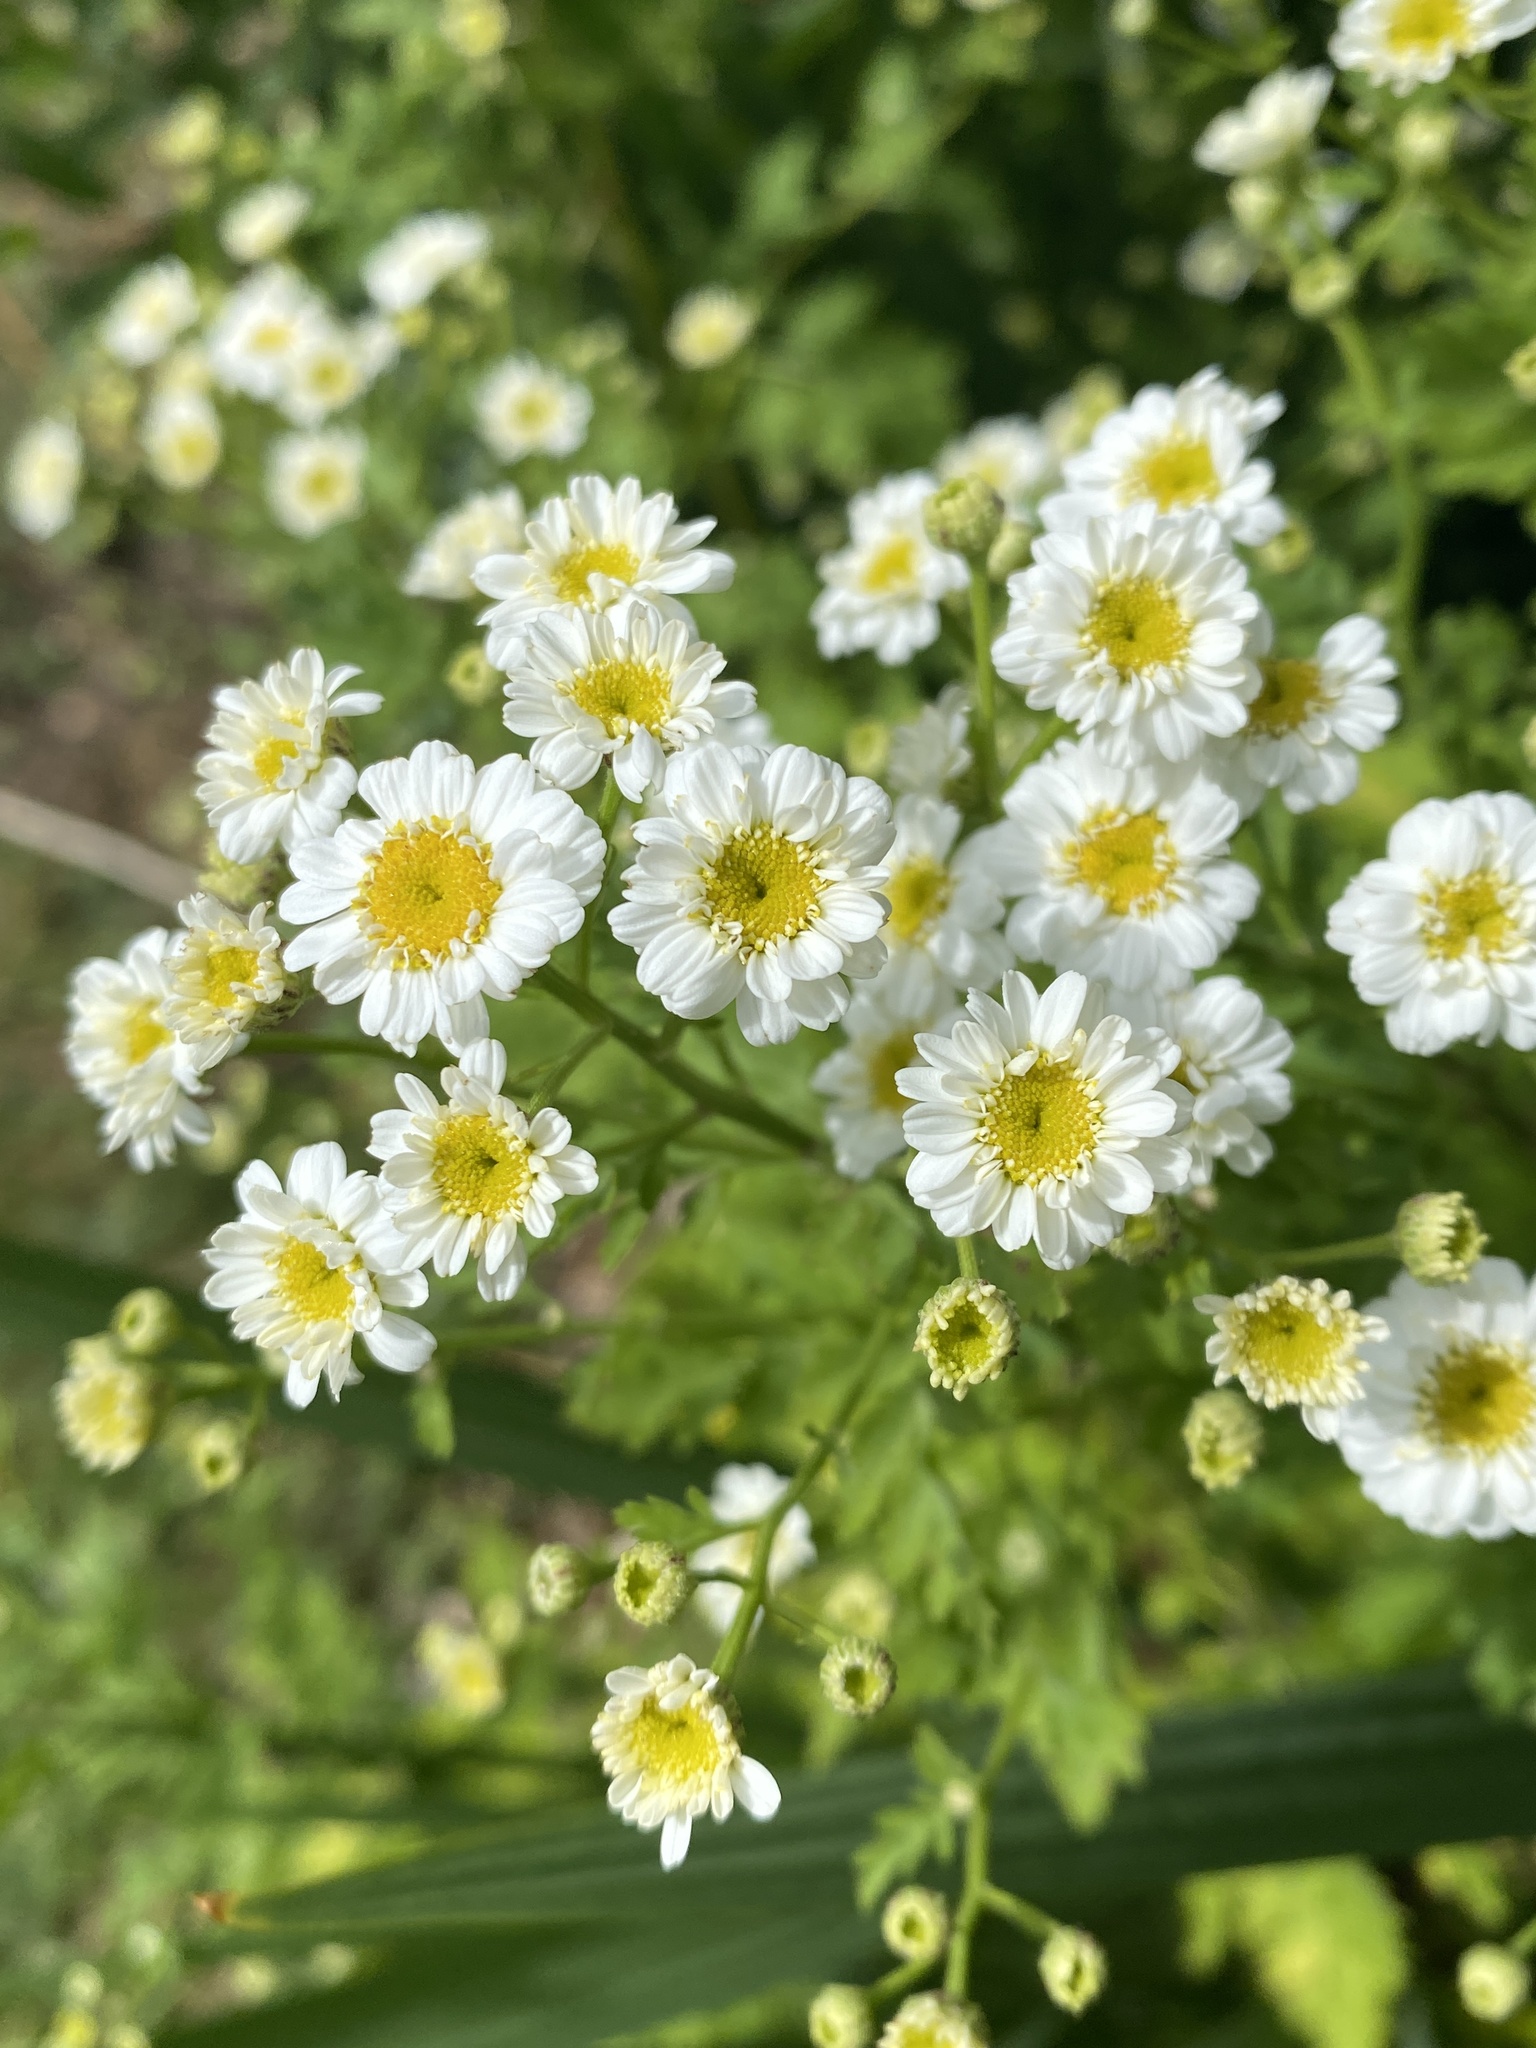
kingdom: Plantae
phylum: Tracheophyta
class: Magnoliopsida
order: Asterales
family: Asteraceae
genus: Tanacetum
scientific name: Tanacetum parthenium
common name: Feverfew
